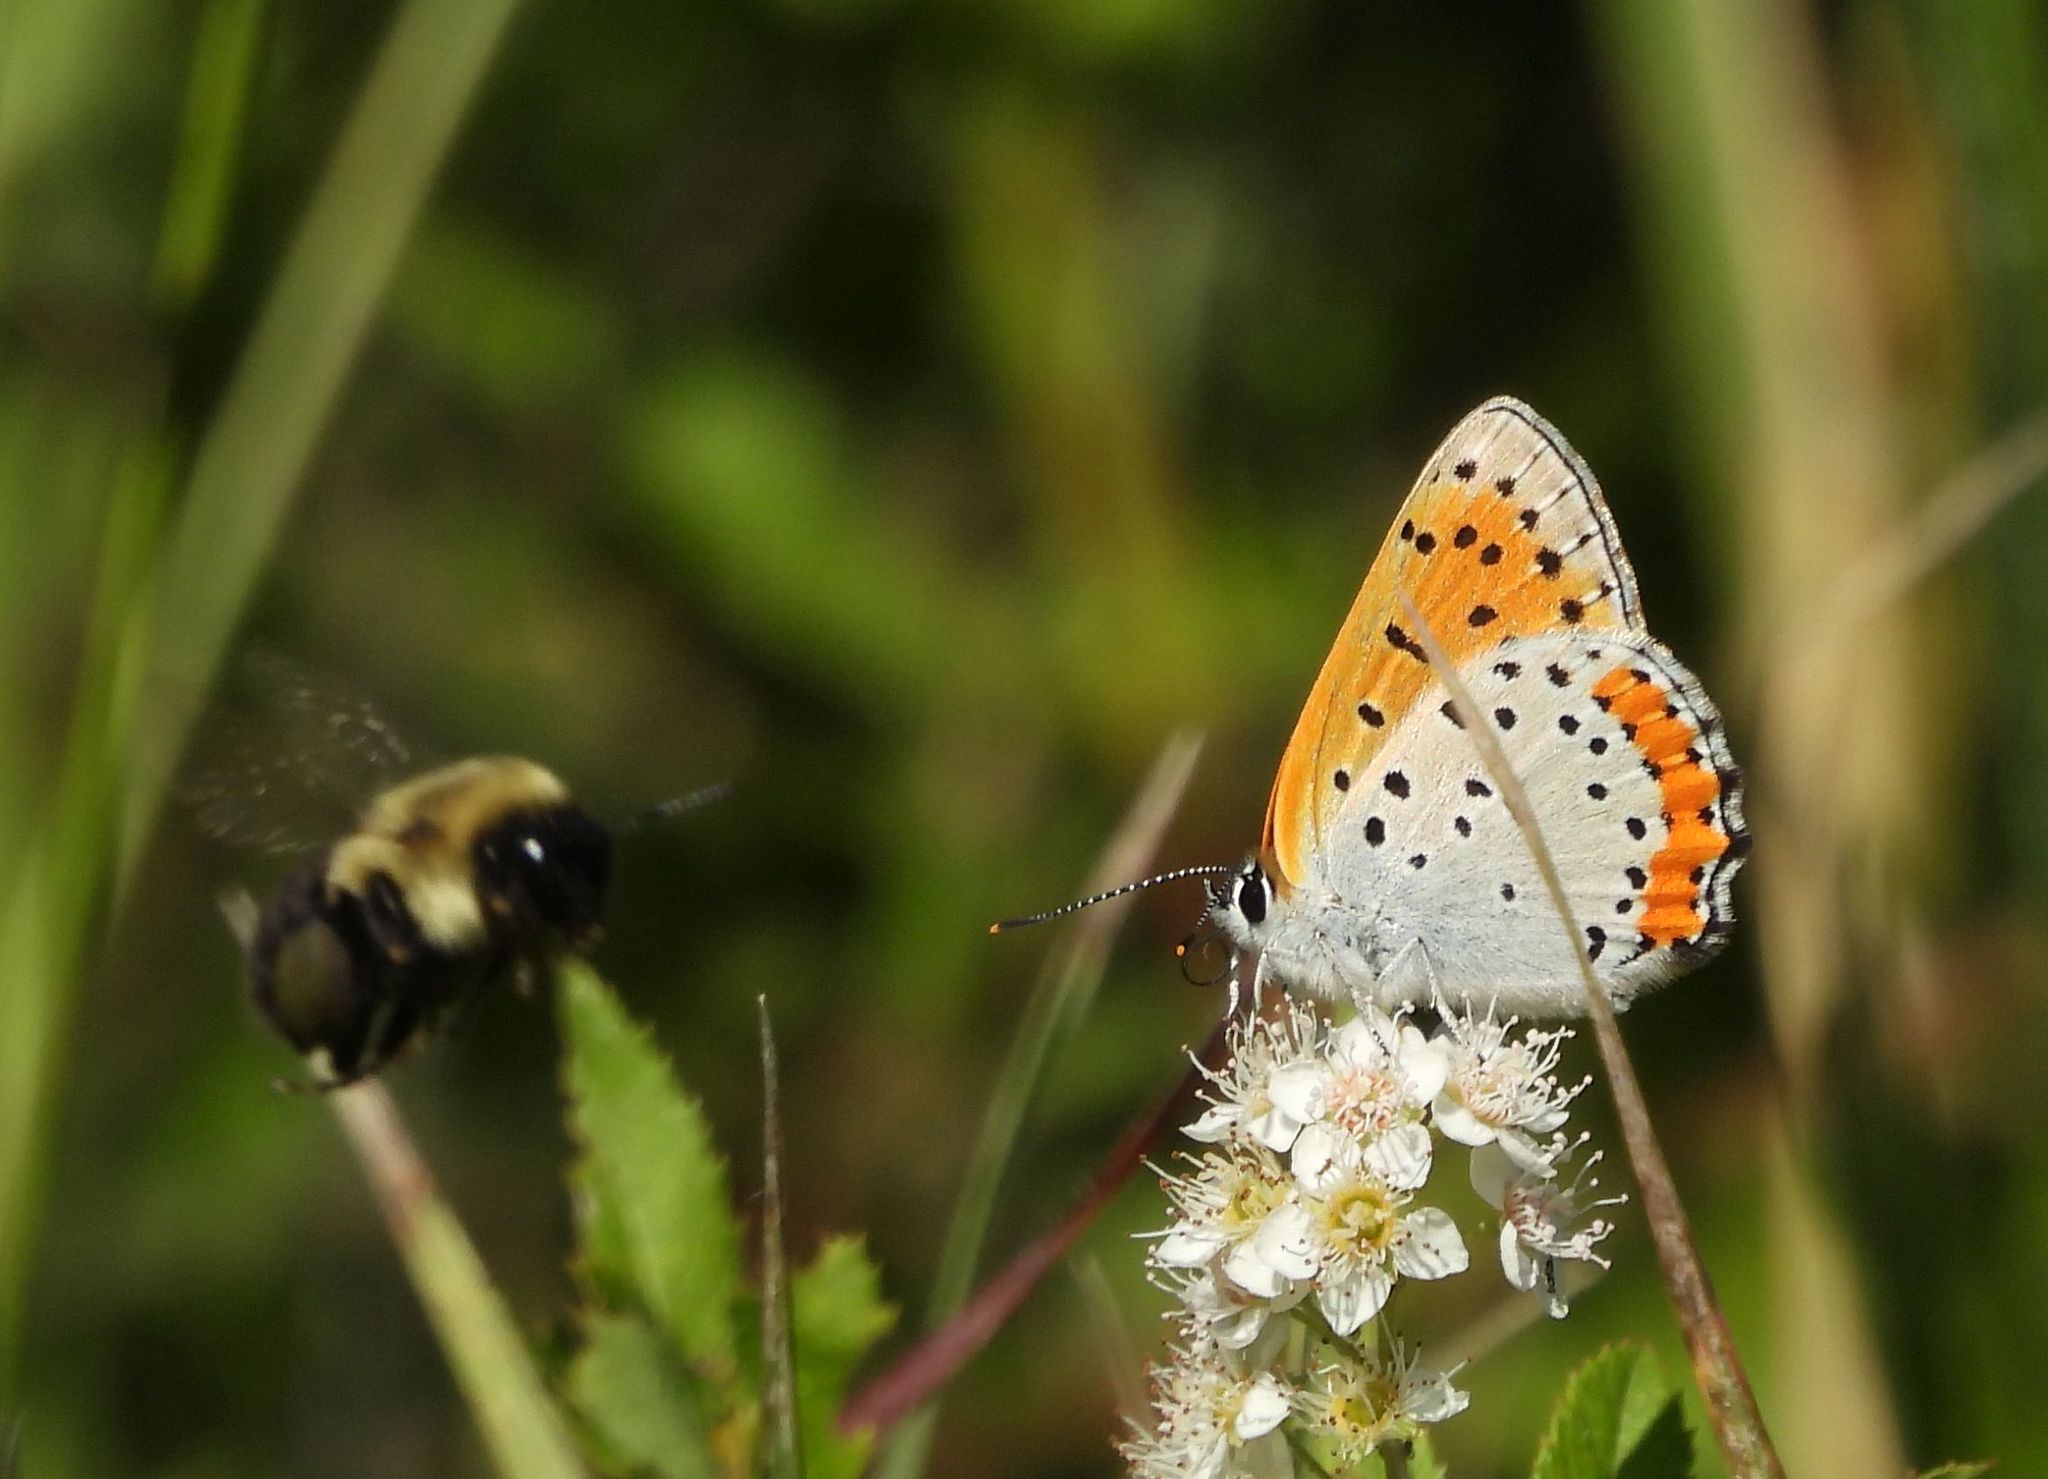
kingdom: Animalia
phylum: Arthropoda
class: Insecta
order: Lepidoptera
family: Lycaenidae
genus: Tharsalea
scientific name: Tharsalea hyllus
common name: Bronze copper
